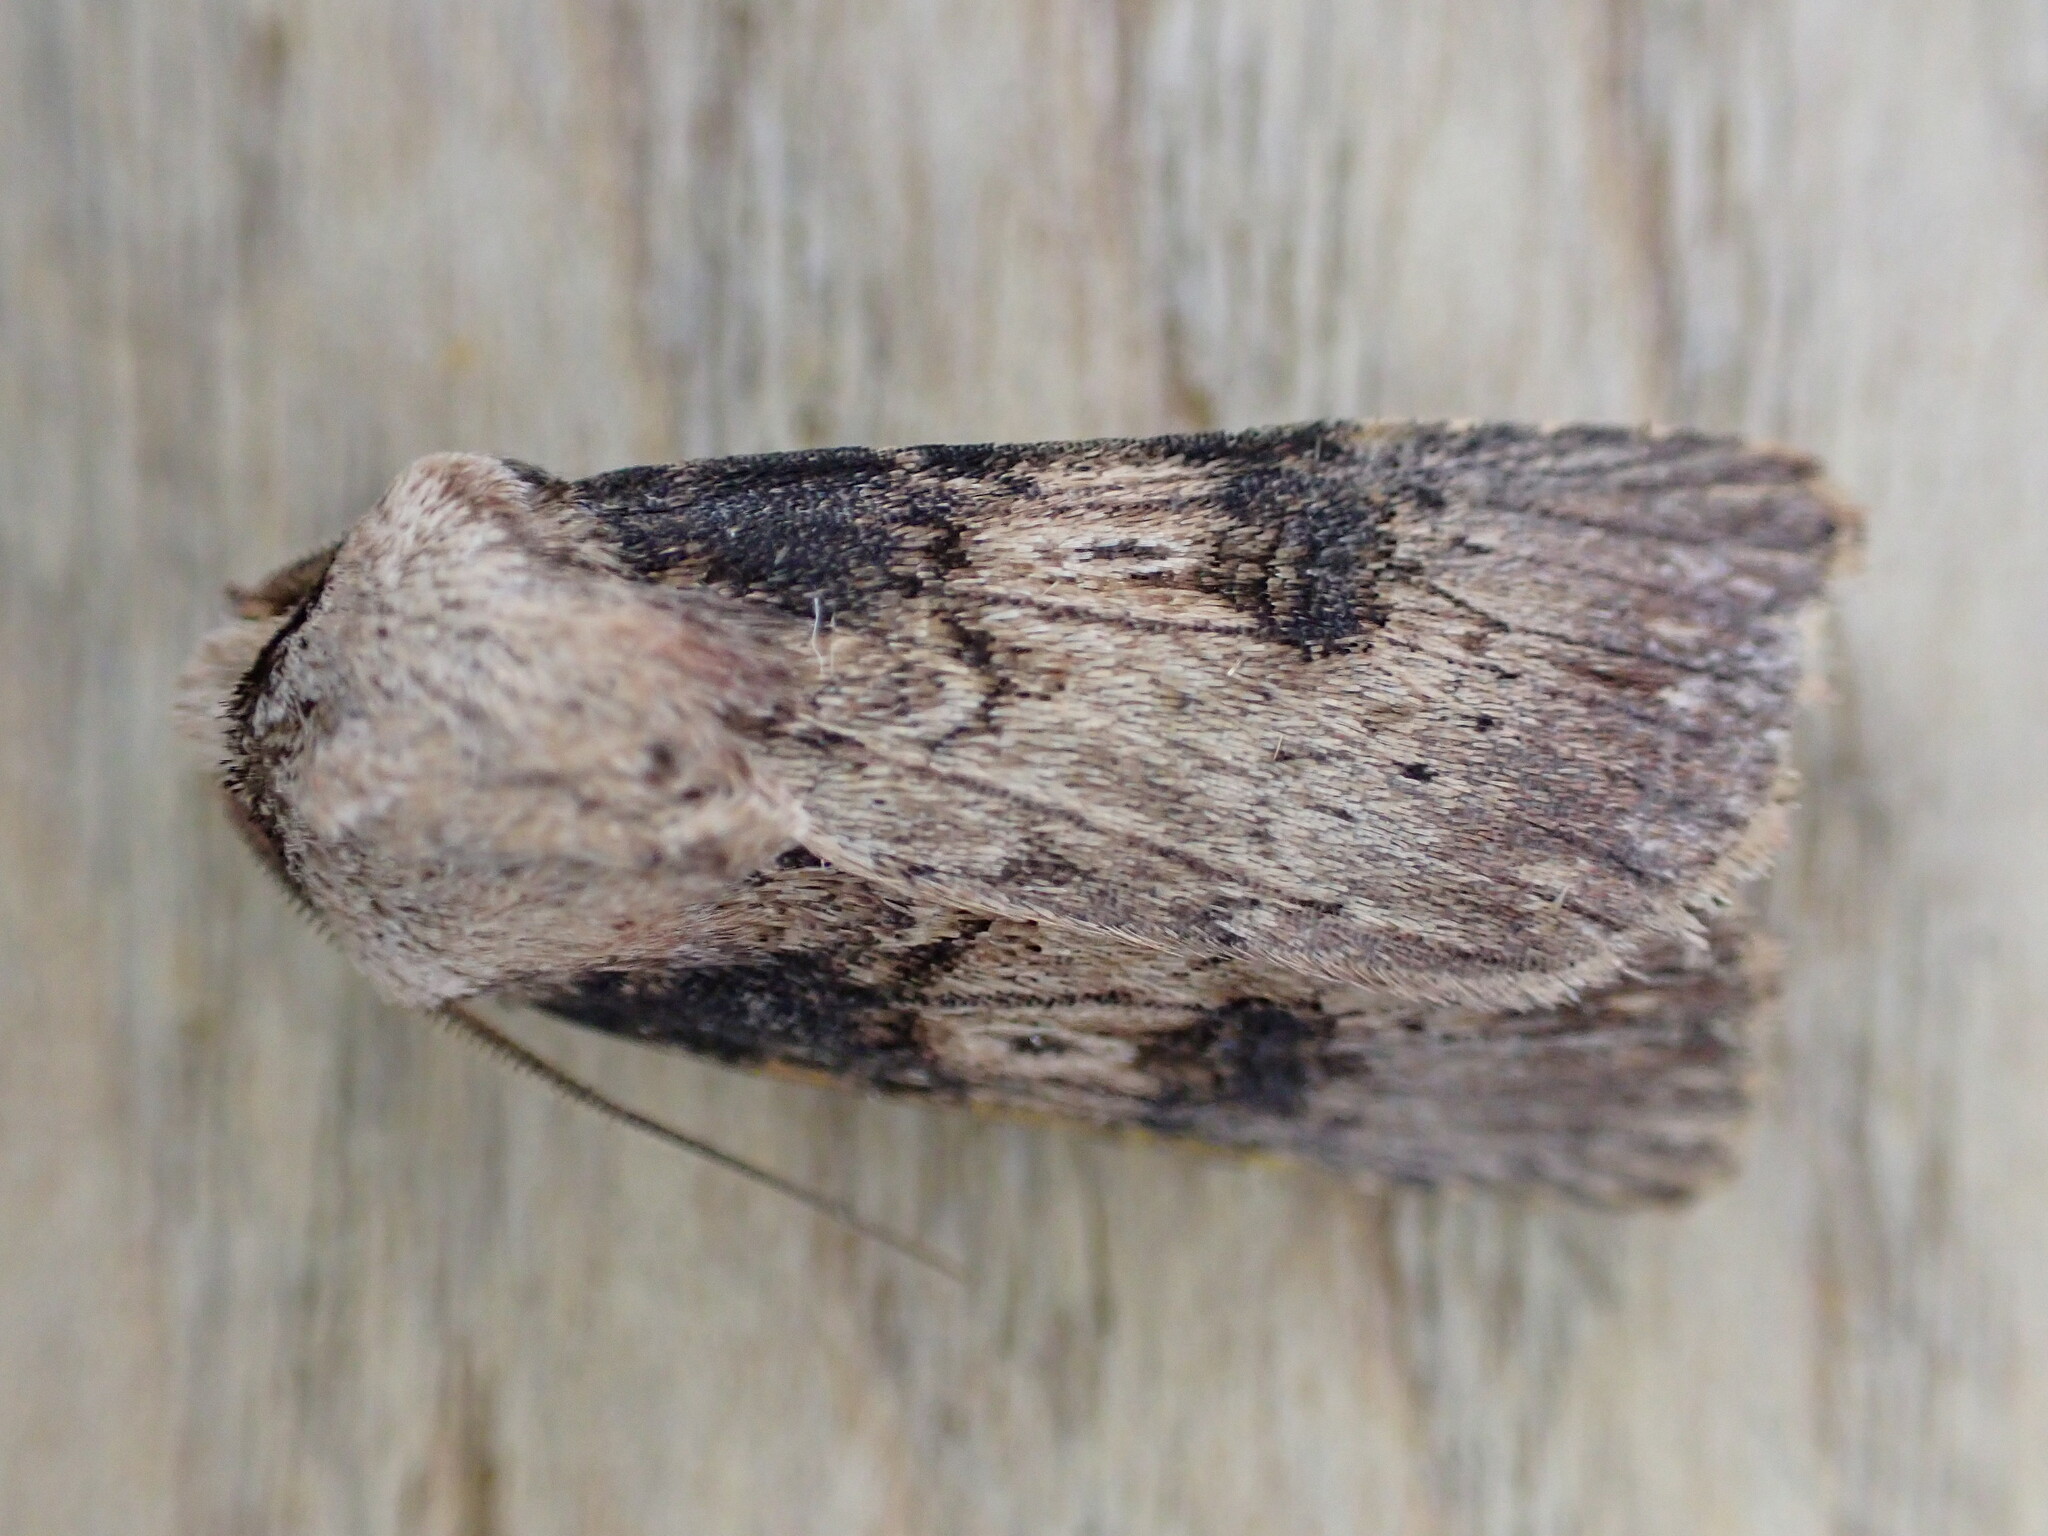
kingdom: Animalia
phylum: Arthropoda
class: Insecta
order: Lepidoptera
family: Noctuidae
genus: Agrotis
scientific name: Agrotis puta
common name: Shuttle-shaped dart
